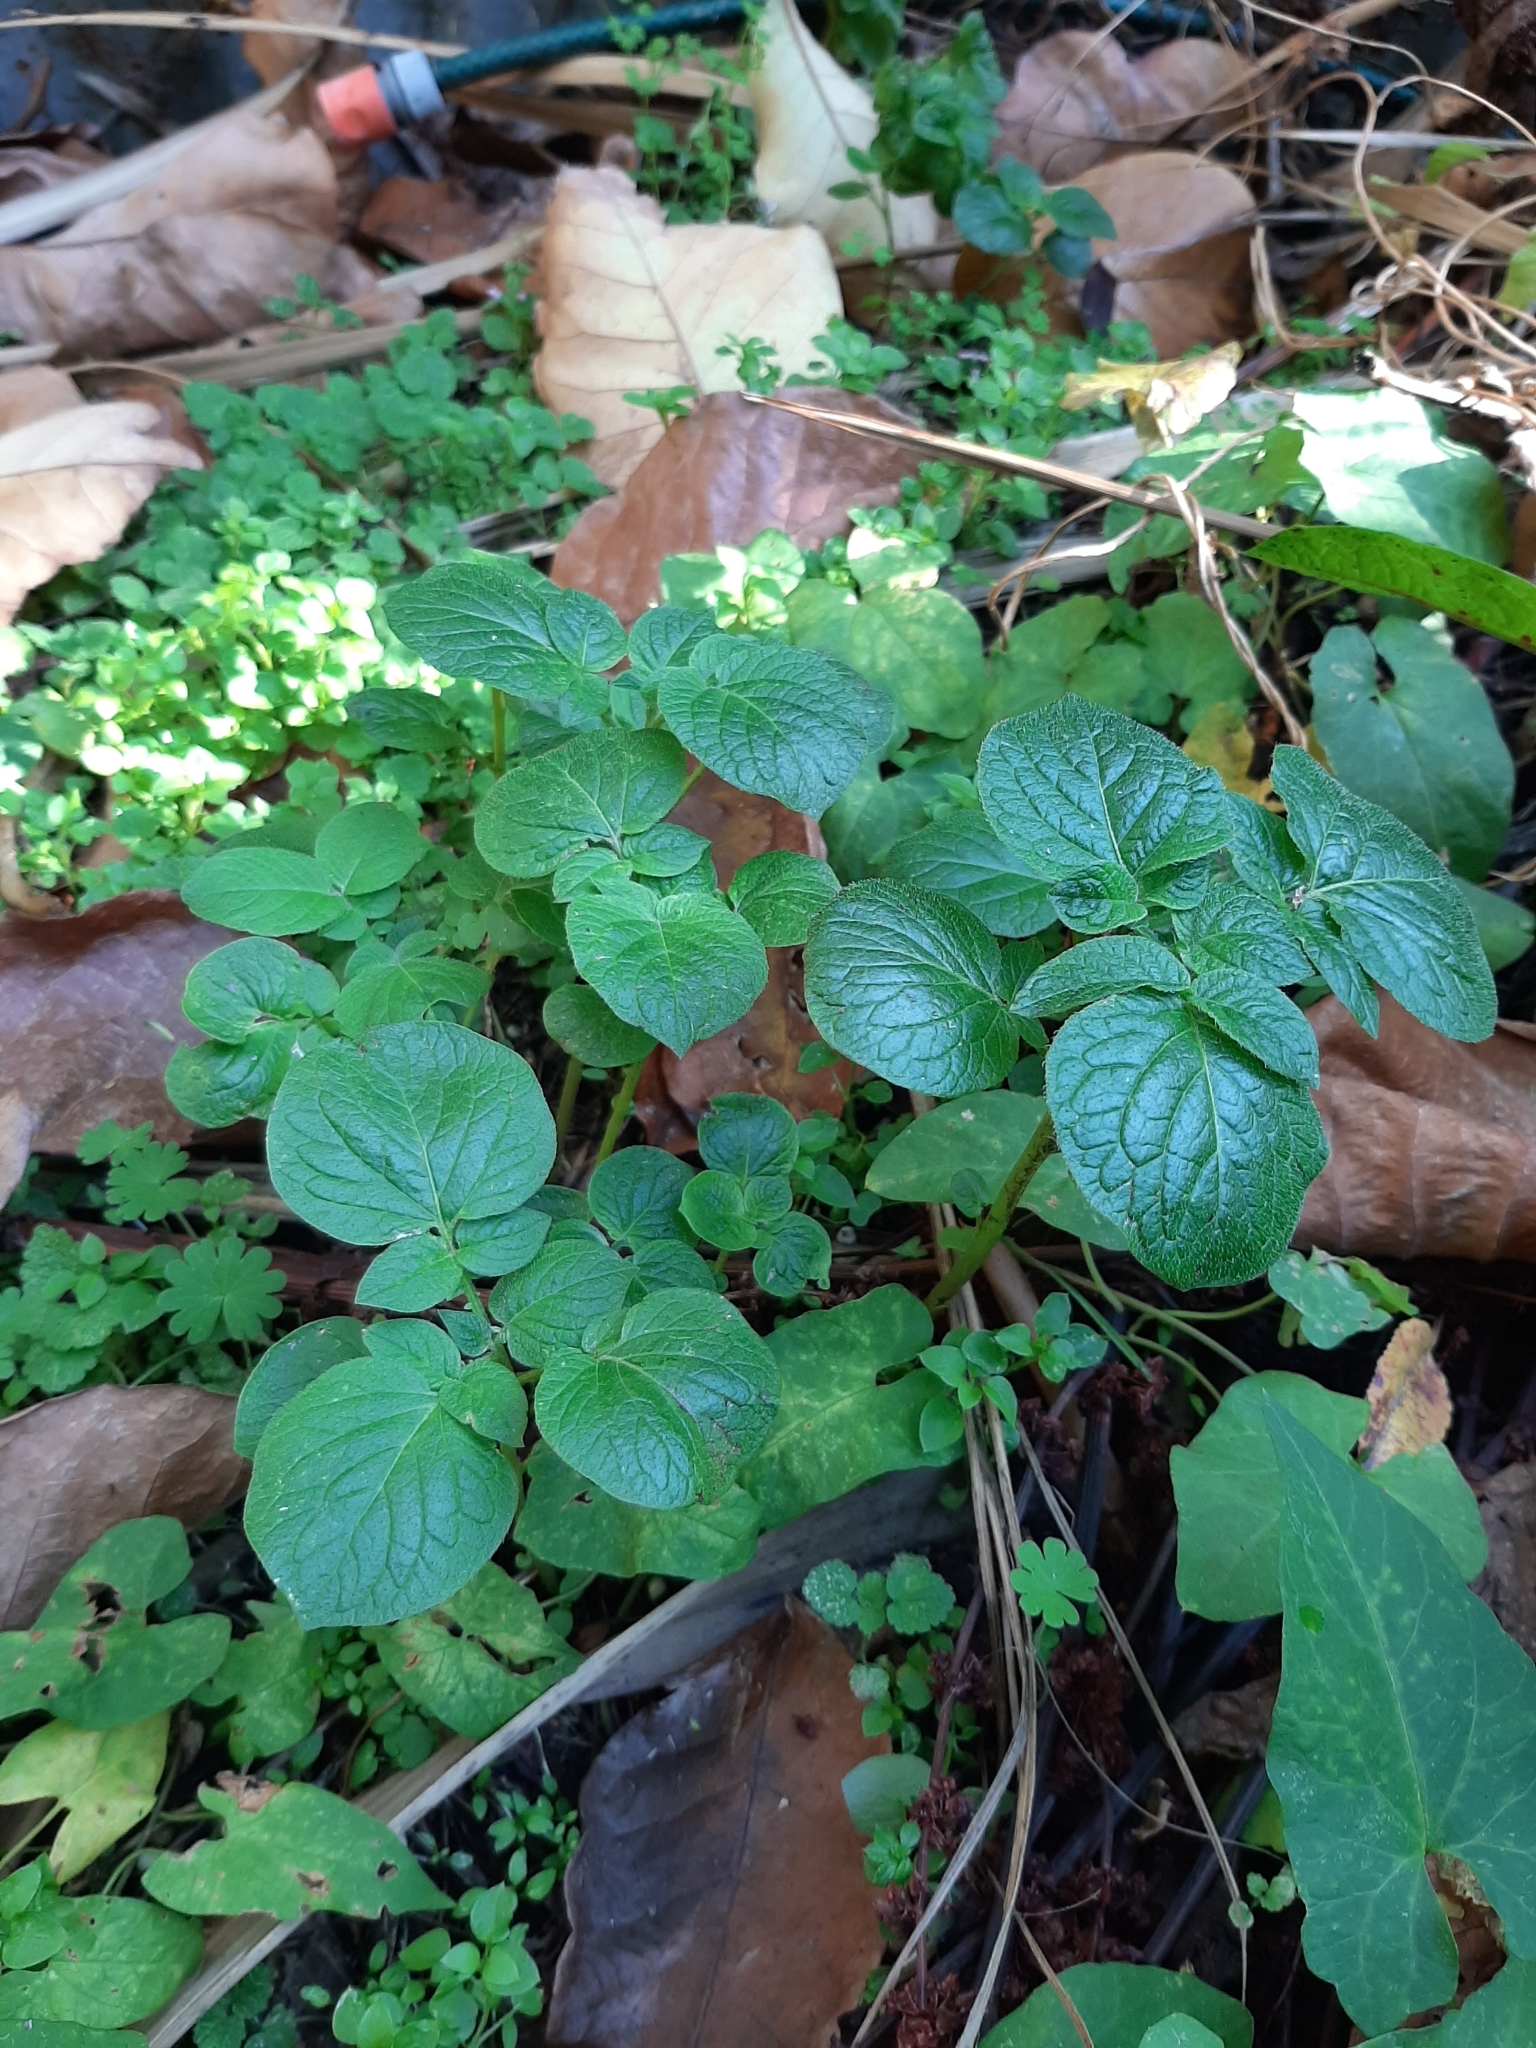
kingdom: Plantae
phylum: Tracheophyta
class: Magnoliopsida
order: Solanales
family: Solanaceae
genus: Solanum
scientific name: Solanum tuberosum
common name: Potato
